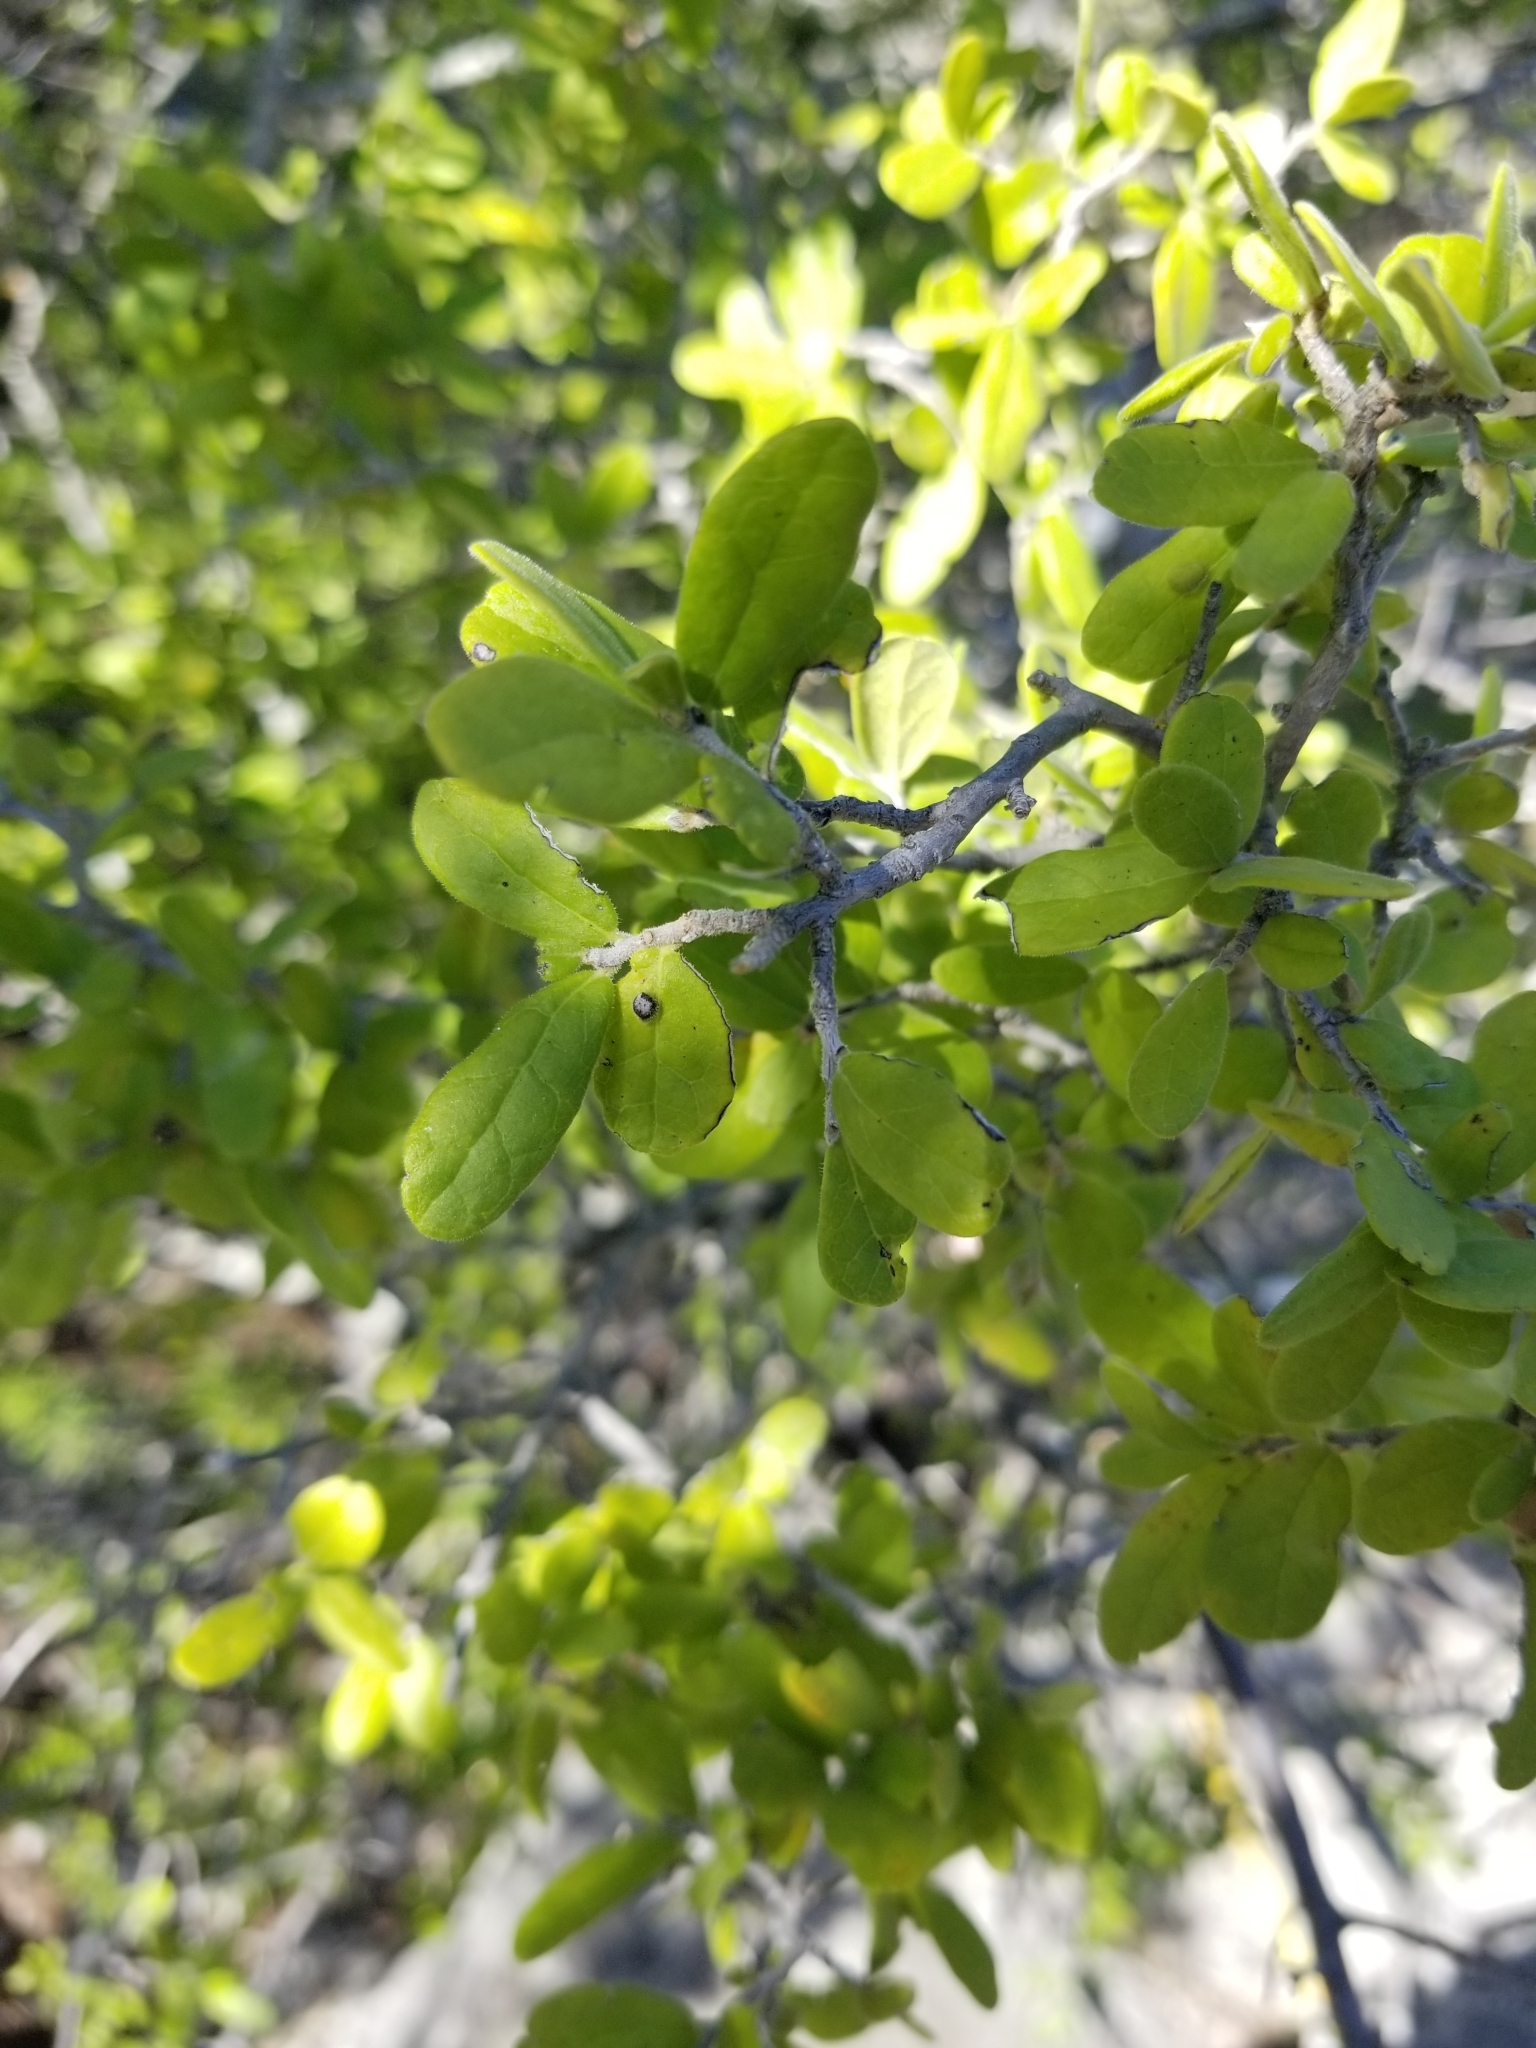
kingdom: Plantae
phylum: Tracheophyta
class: Magnoliopsida
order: Ericales
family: Ebenaceae
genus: Diospyros
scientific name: Diospyros texana
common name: Texas persimmon
